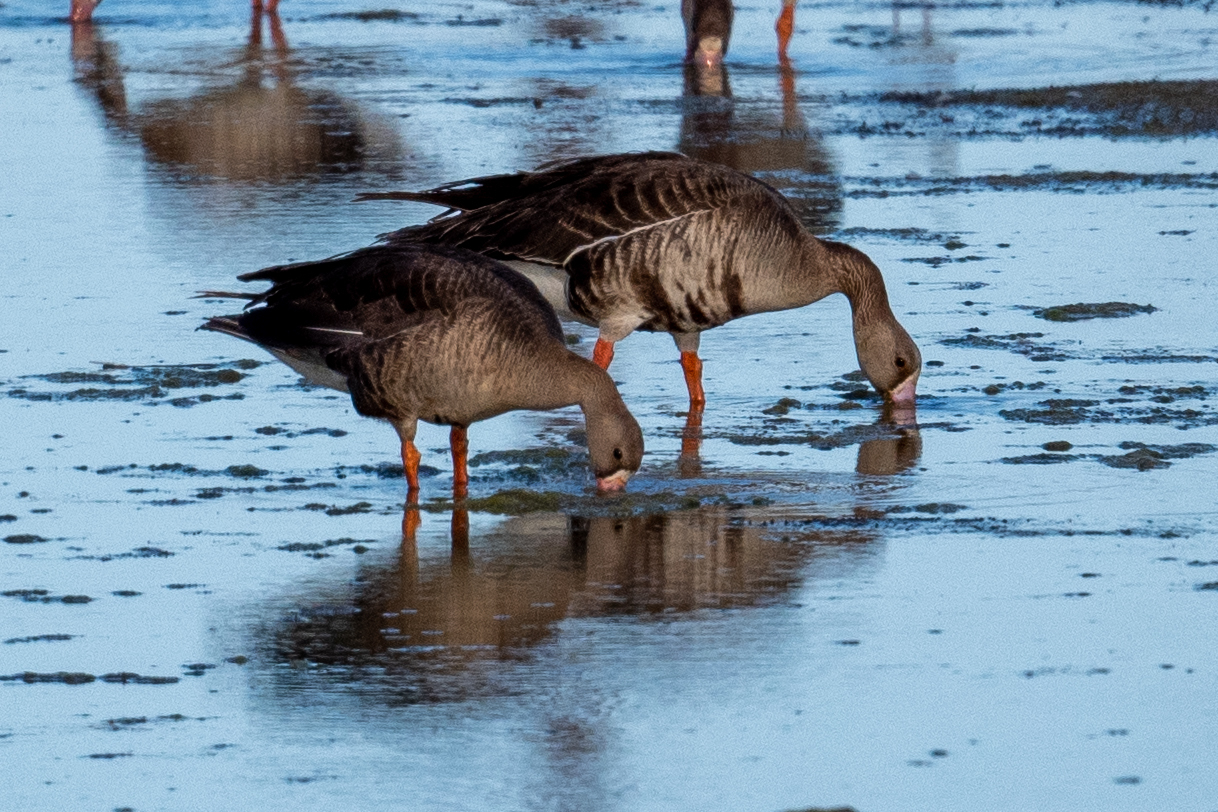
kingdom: Animalia
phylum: Chordata
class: Aves
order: Anseriformes
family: Anatidae
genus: Anser
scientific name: Anser albifrons
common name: Greater white-fronted goose
